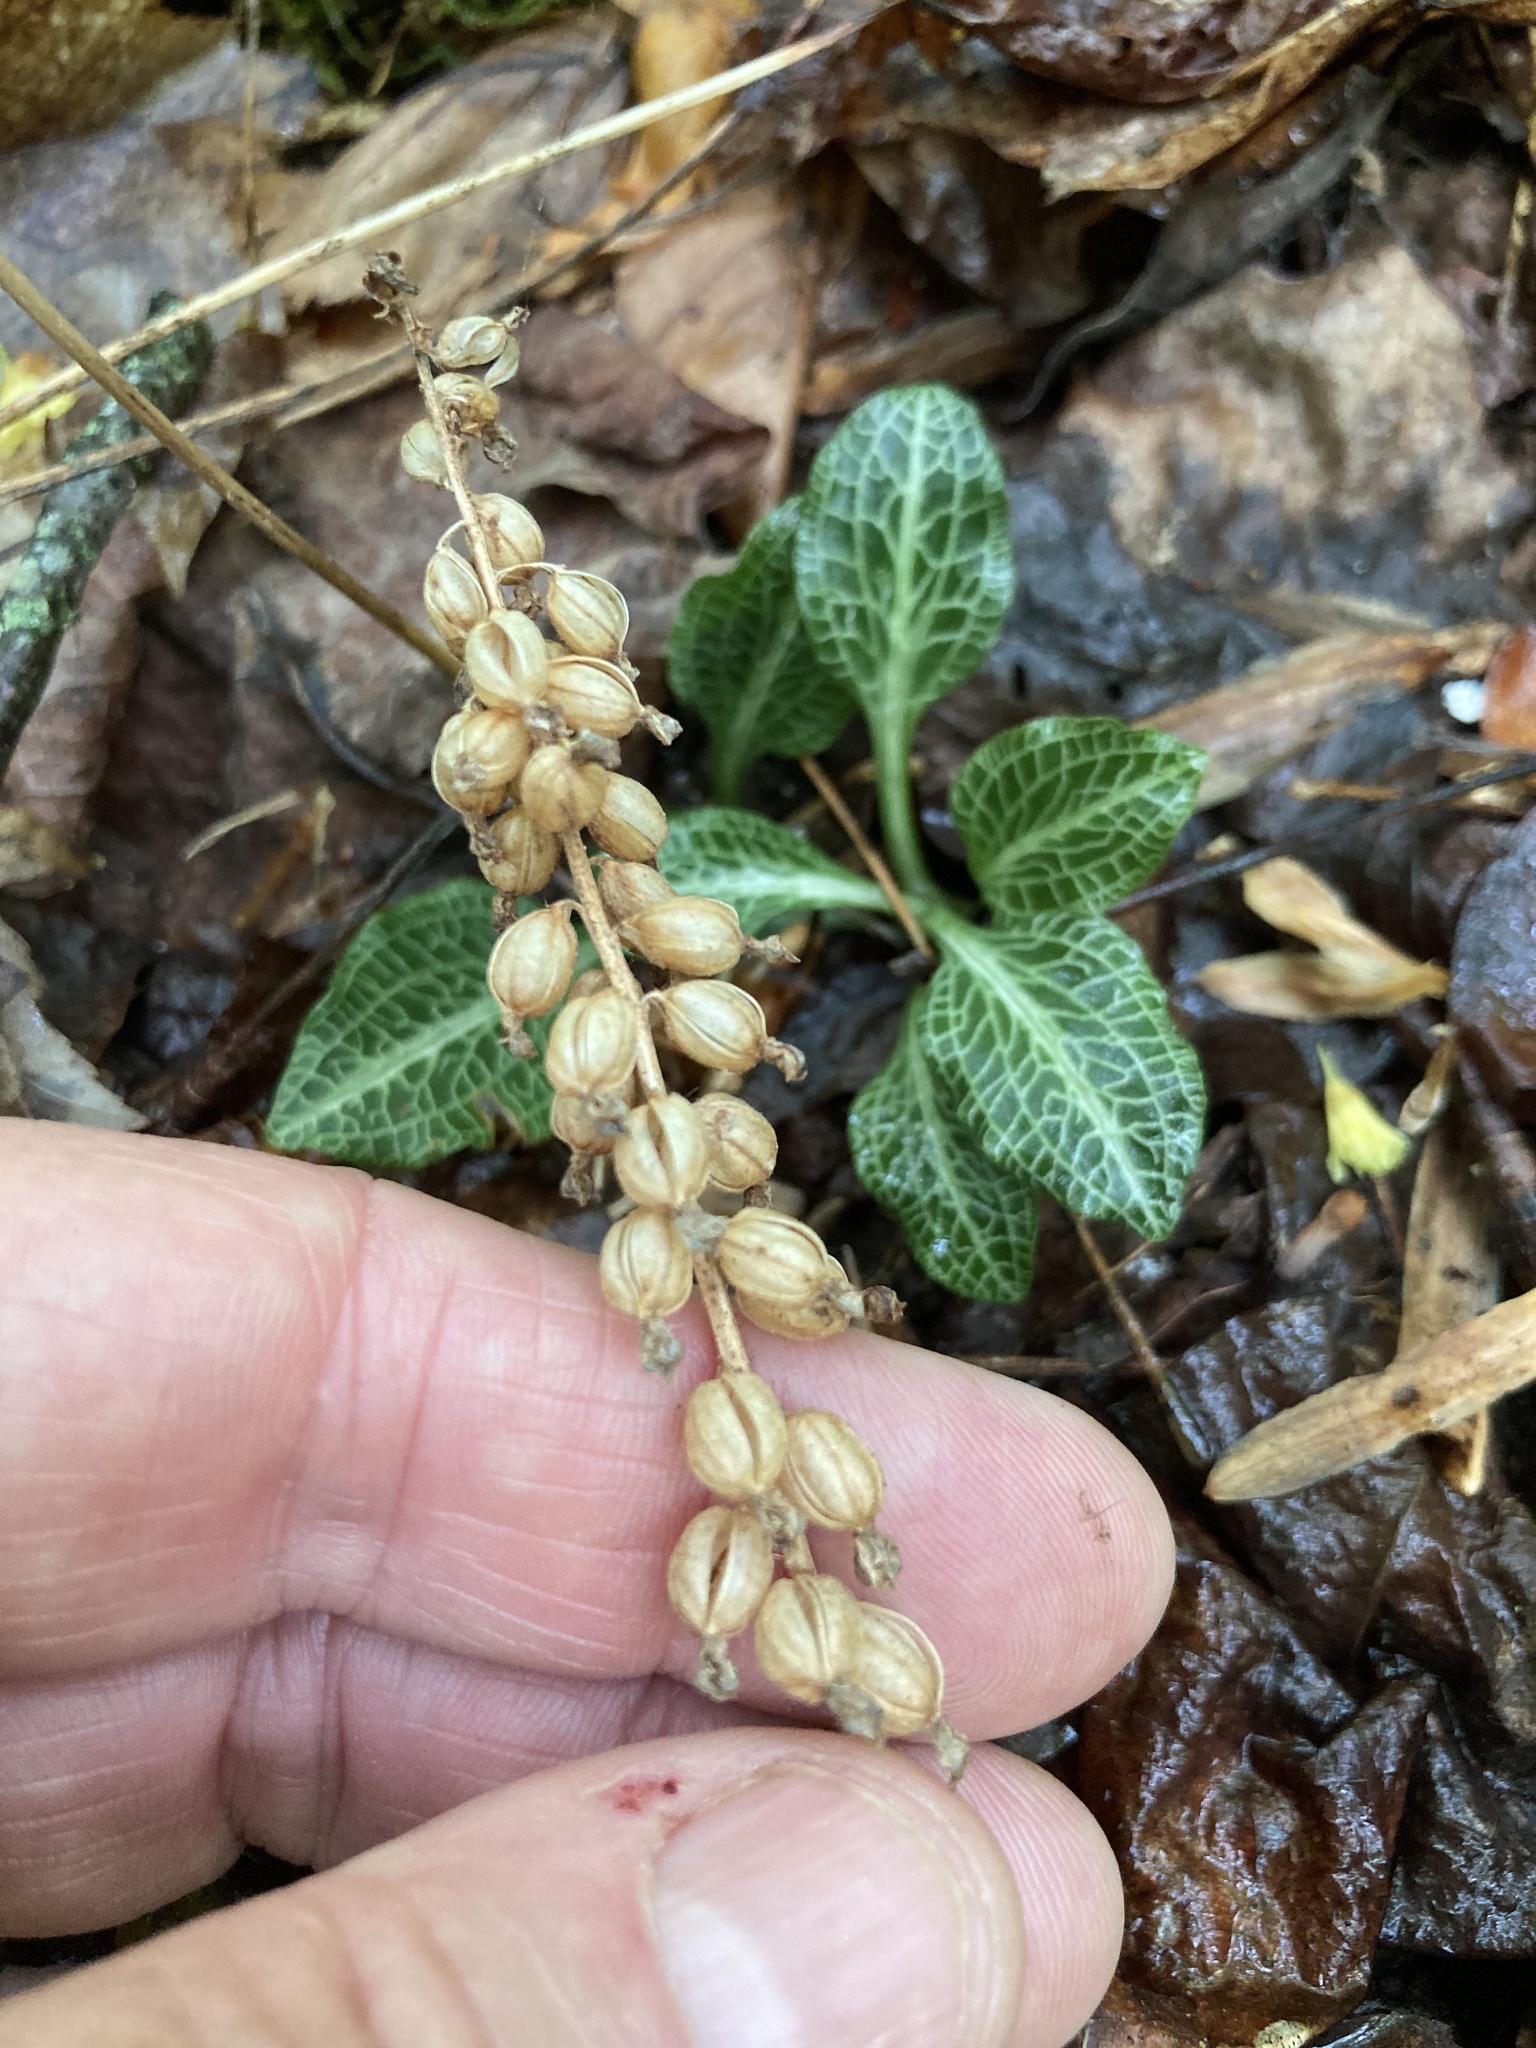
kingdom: Plantae
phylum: Tracheophyta
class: Liliopsida
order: Asparagales
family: Orchidaceae
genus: Goodyera
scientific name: Goodyera pubescens
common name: Downy rattlesnake-plantain
